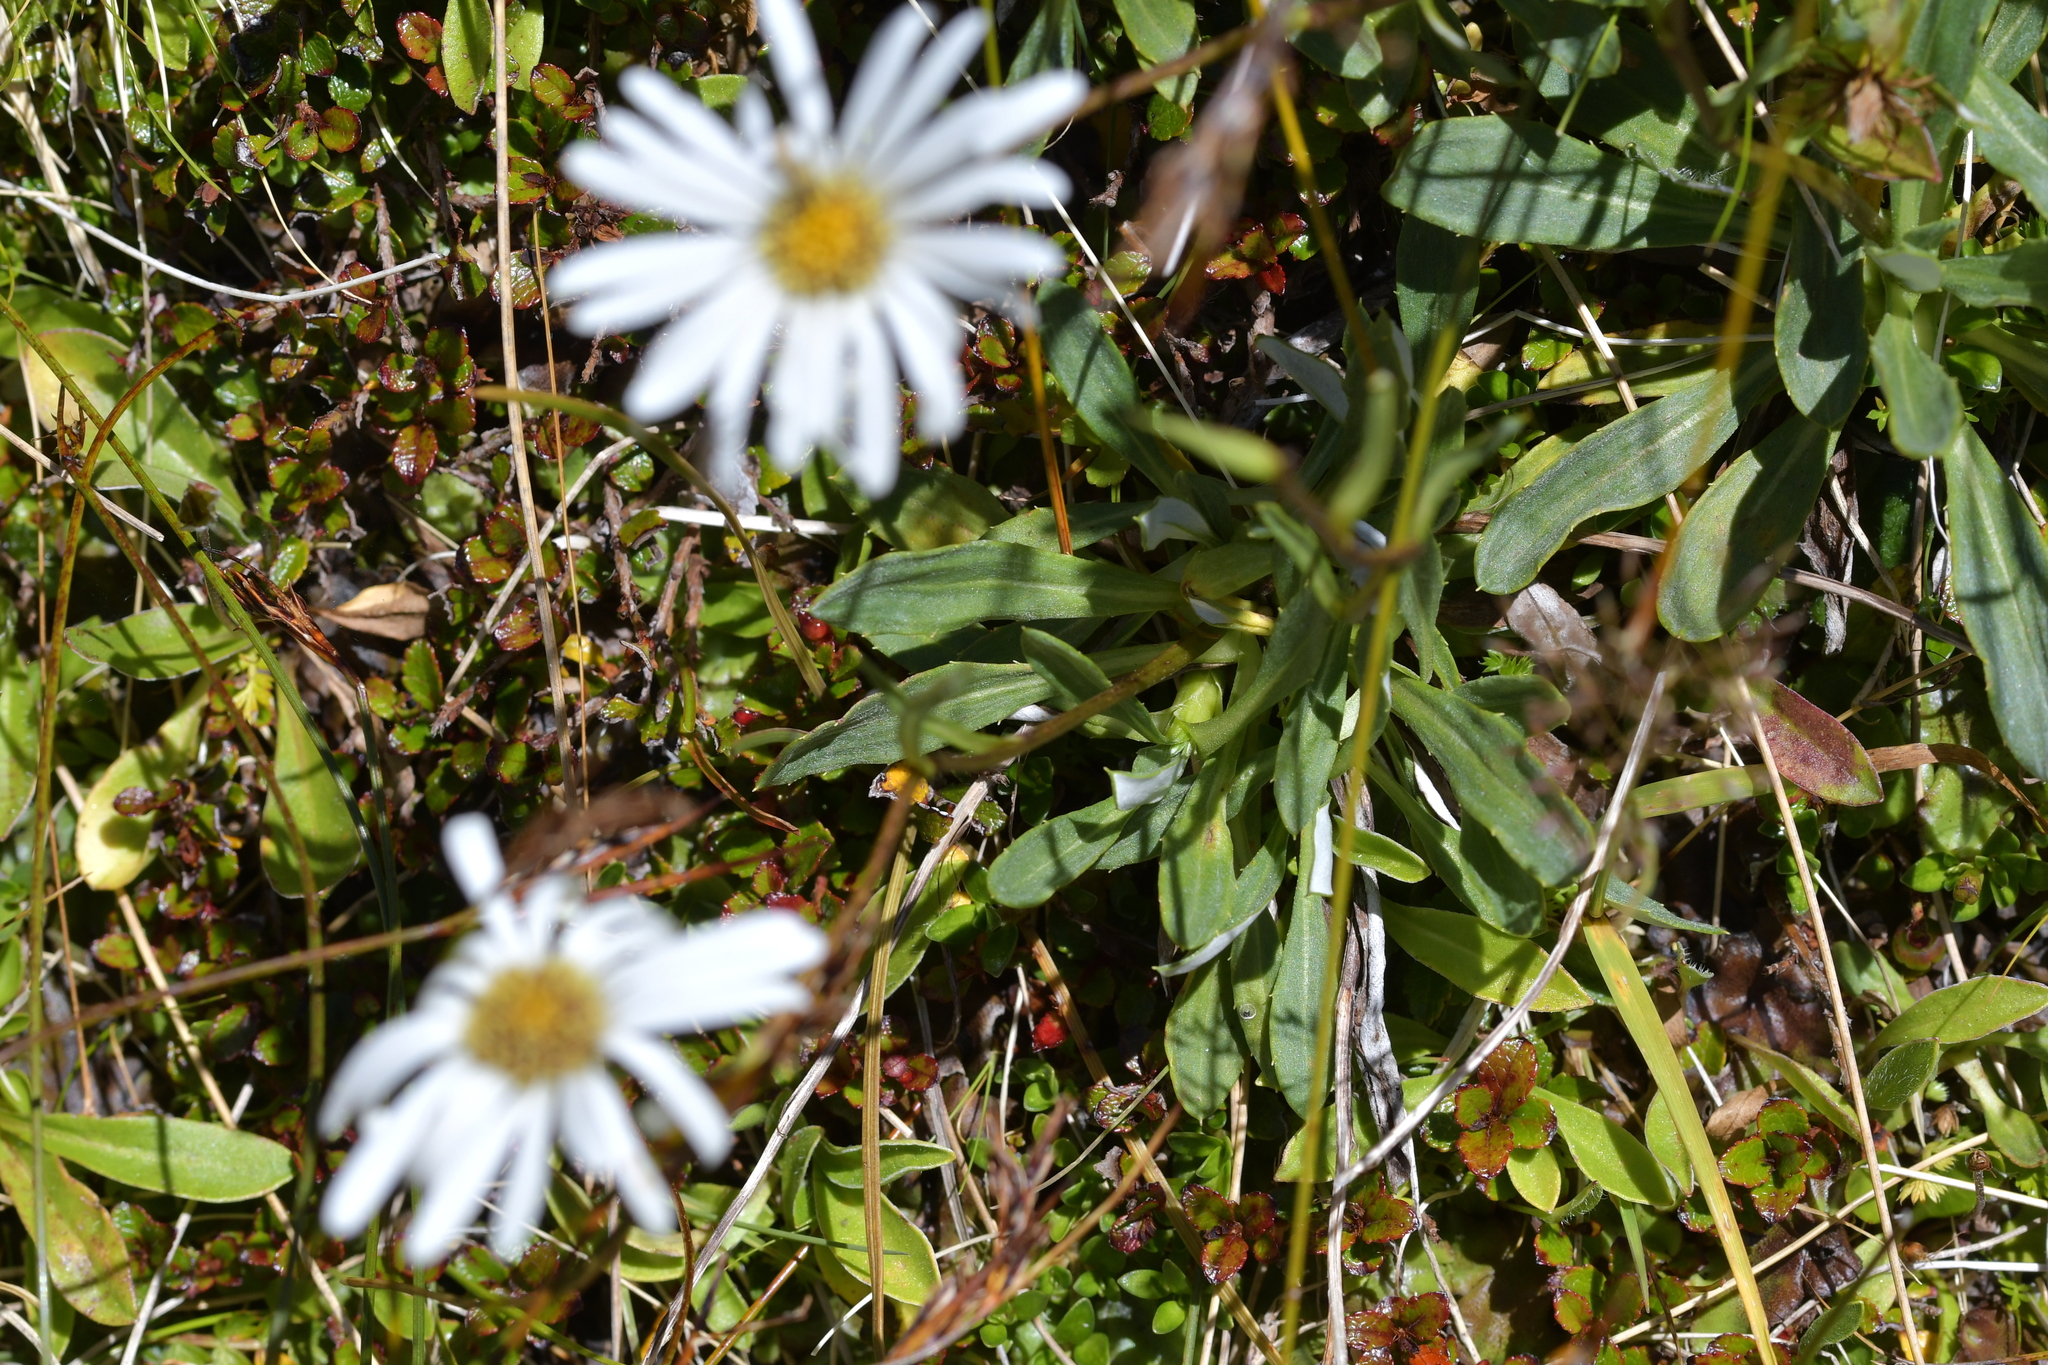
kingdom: Plantae
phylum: Tracheophyta
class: Magnoliopsida
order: Asterales
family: Asteraceae
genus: Celmisia
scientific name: Celmisia durietzii
